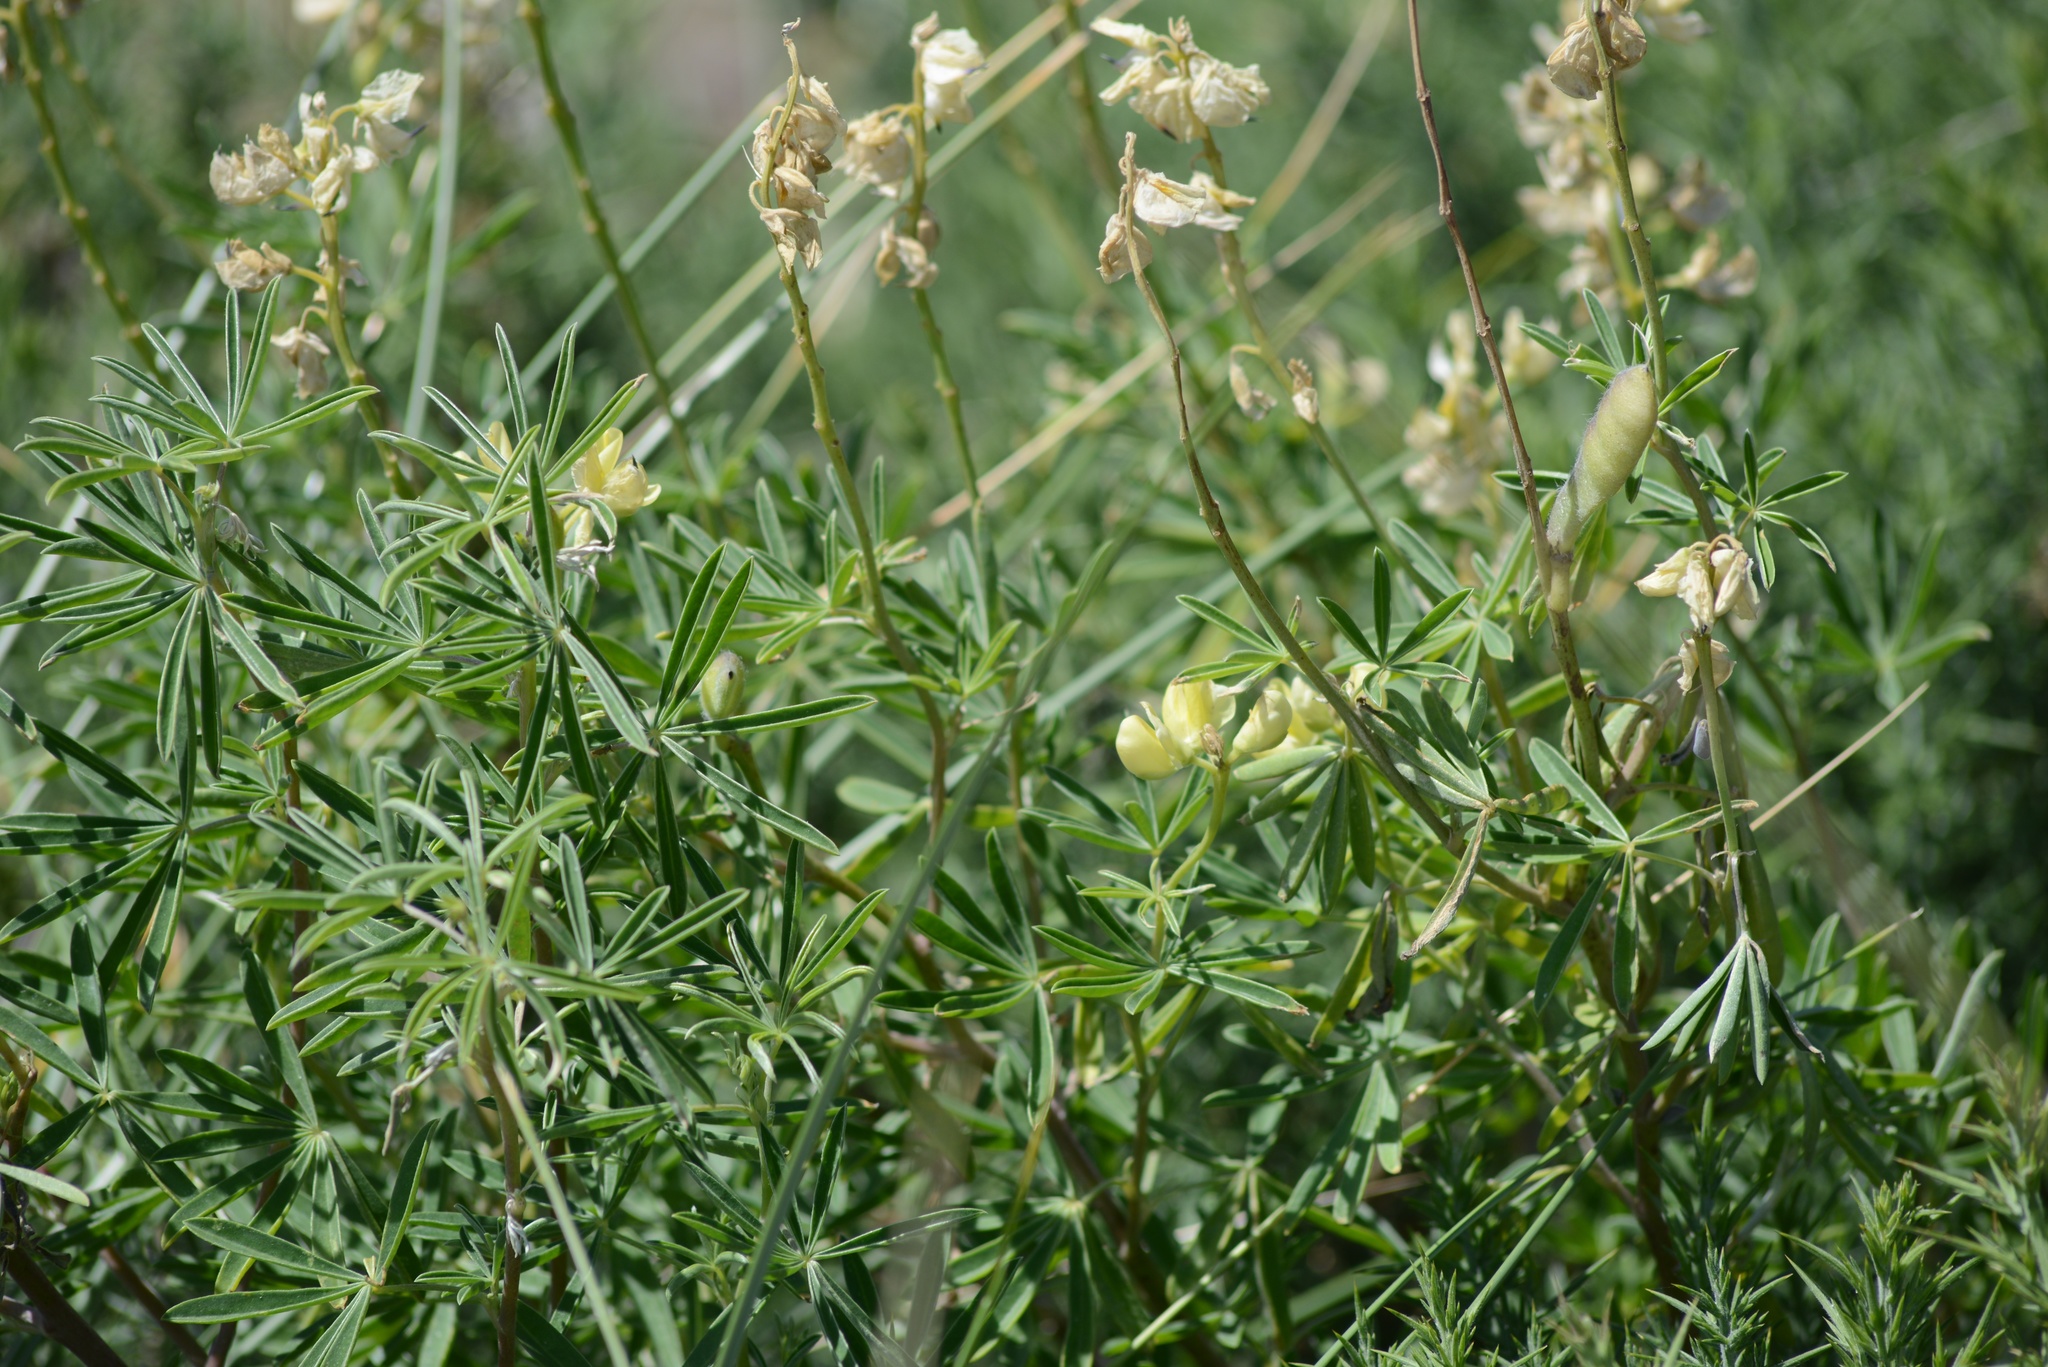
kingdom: Plantae
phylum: Tracheophyta
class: Magnoliopsida
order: Fabales
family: Fabaceae
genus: Lupinus
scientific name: Lupinus arboreus
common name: Yellow bush lupine
